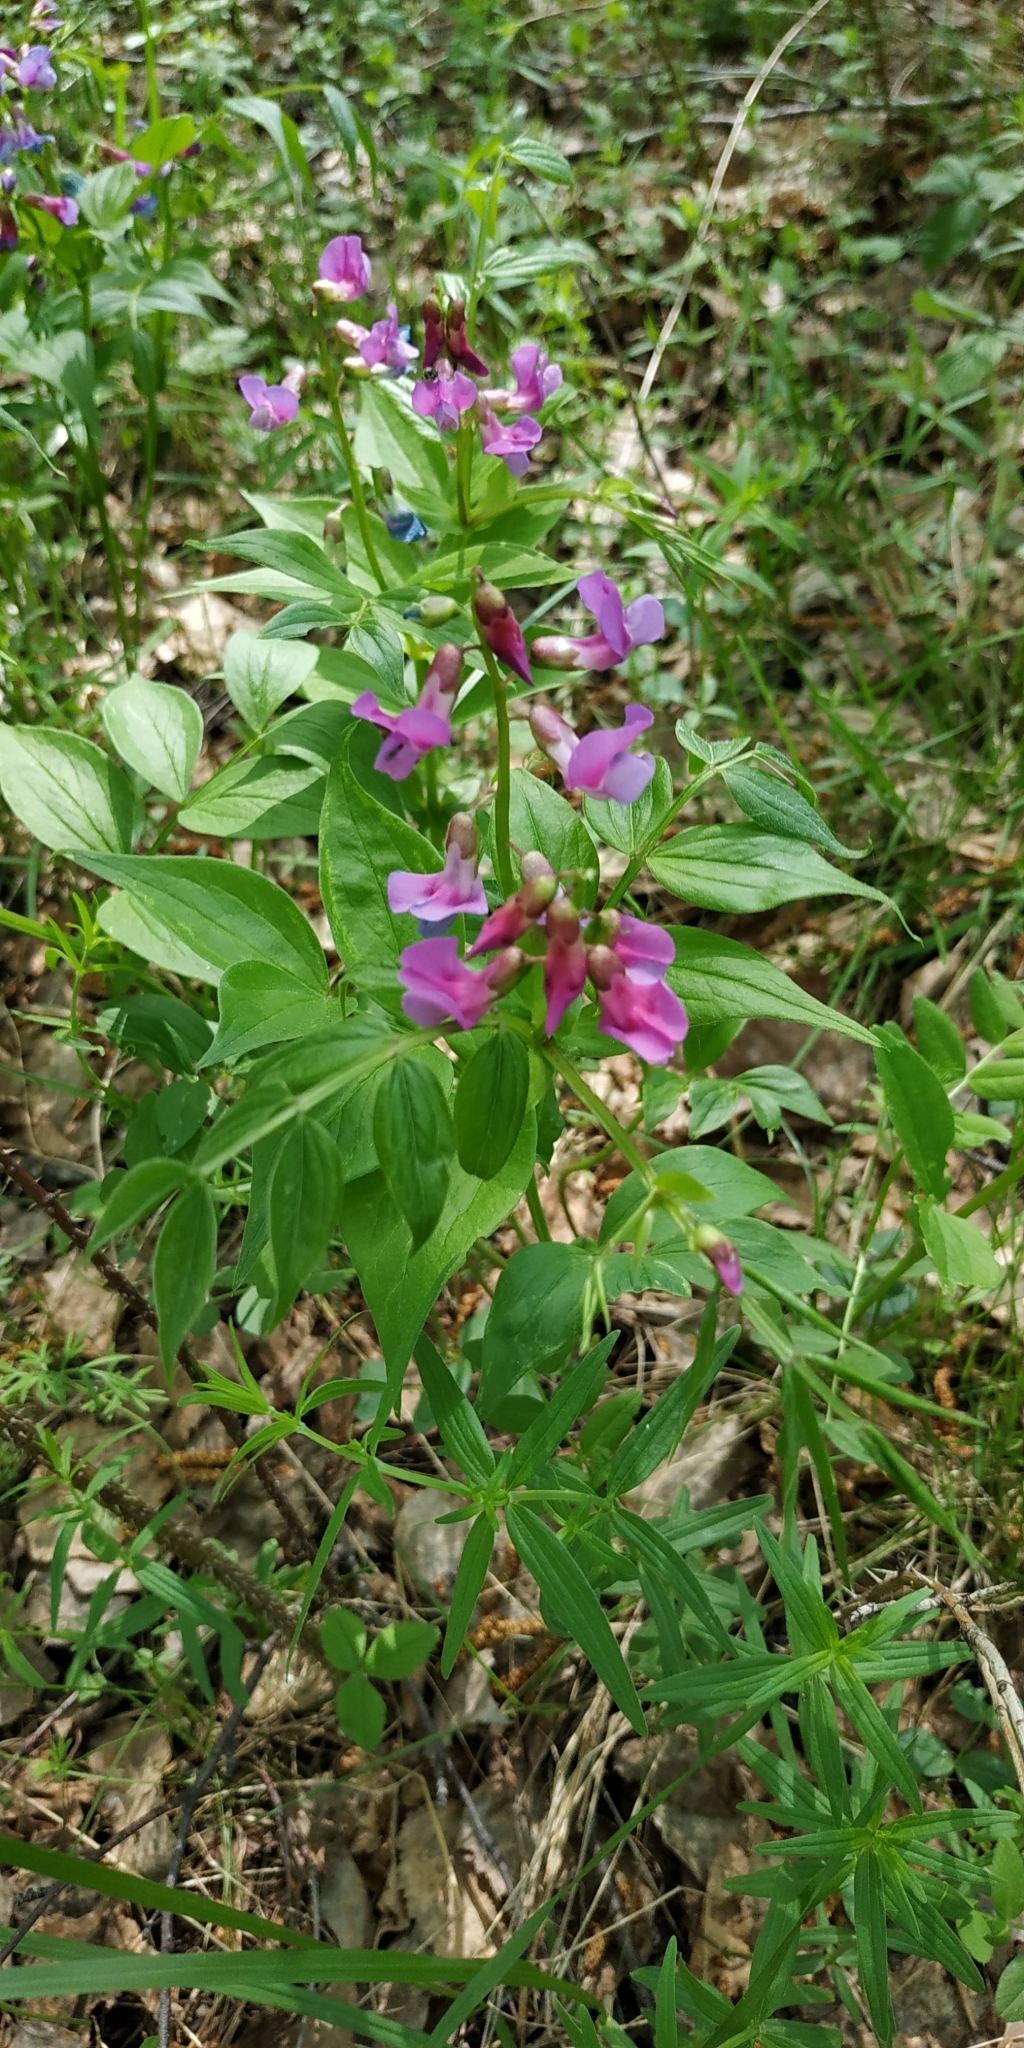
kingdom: Plantae
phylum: Tracheophyta
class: Magnoliopsida
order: Fabales
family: Fabaceae
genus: Lathyrus
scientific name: Lathyrus vernus
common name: Spring pea
